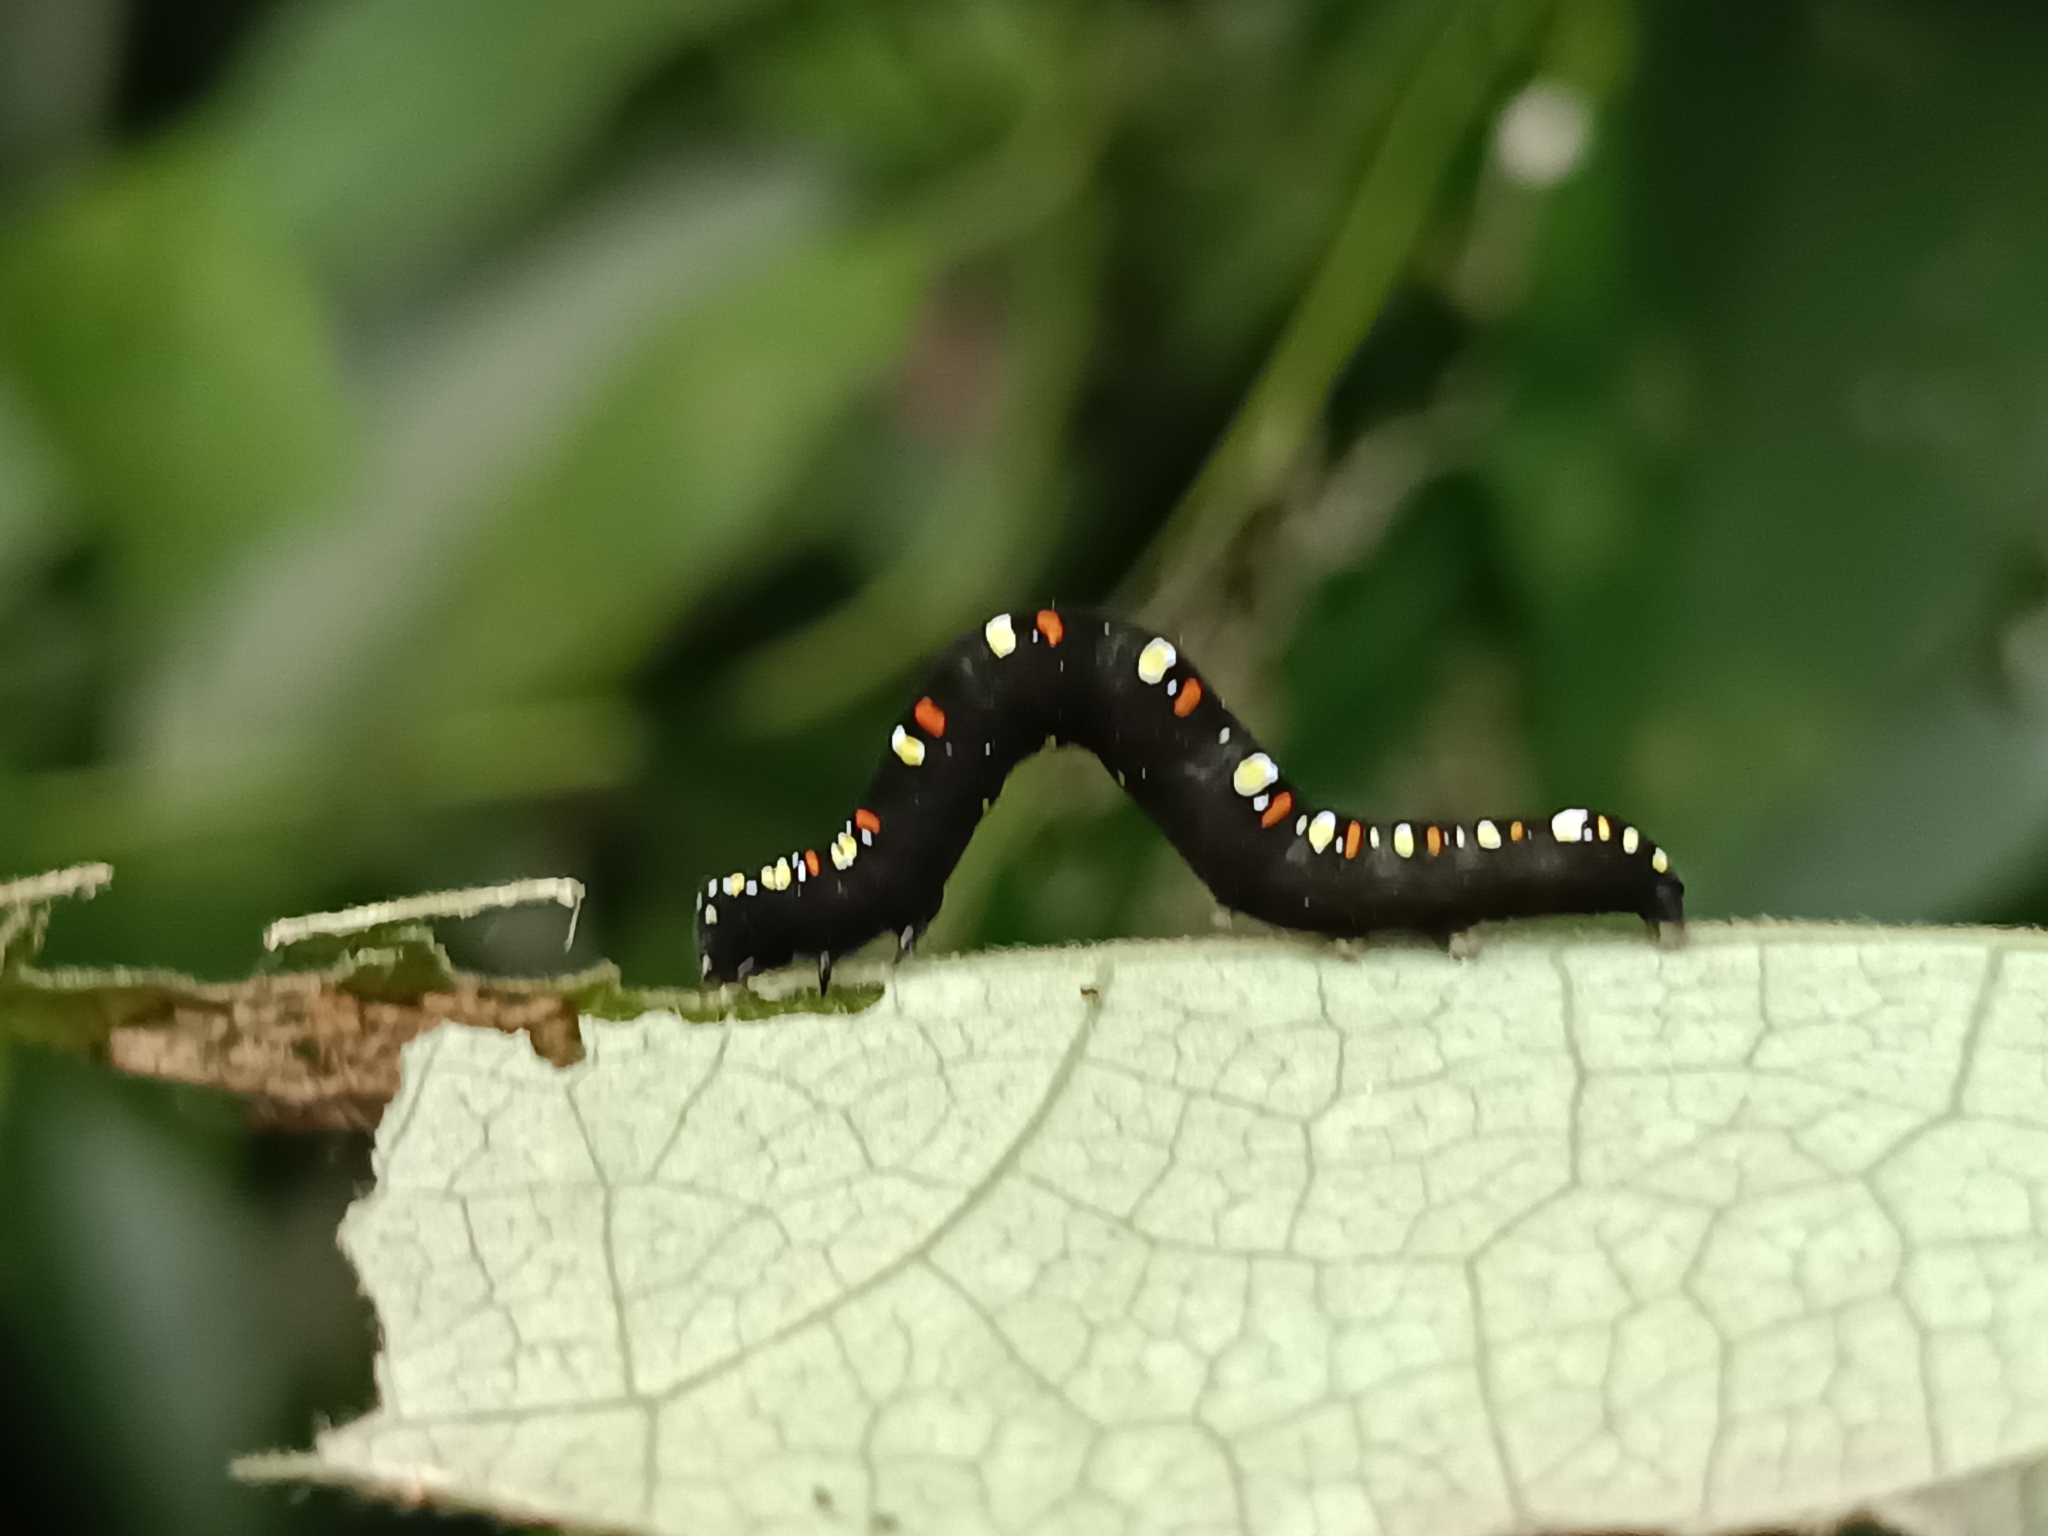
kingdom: Animalia
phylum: Arthropoda
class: Insecta
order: Lepidoptera
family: Erebidae
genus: Oraesia
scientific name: Oraesia emarginata
